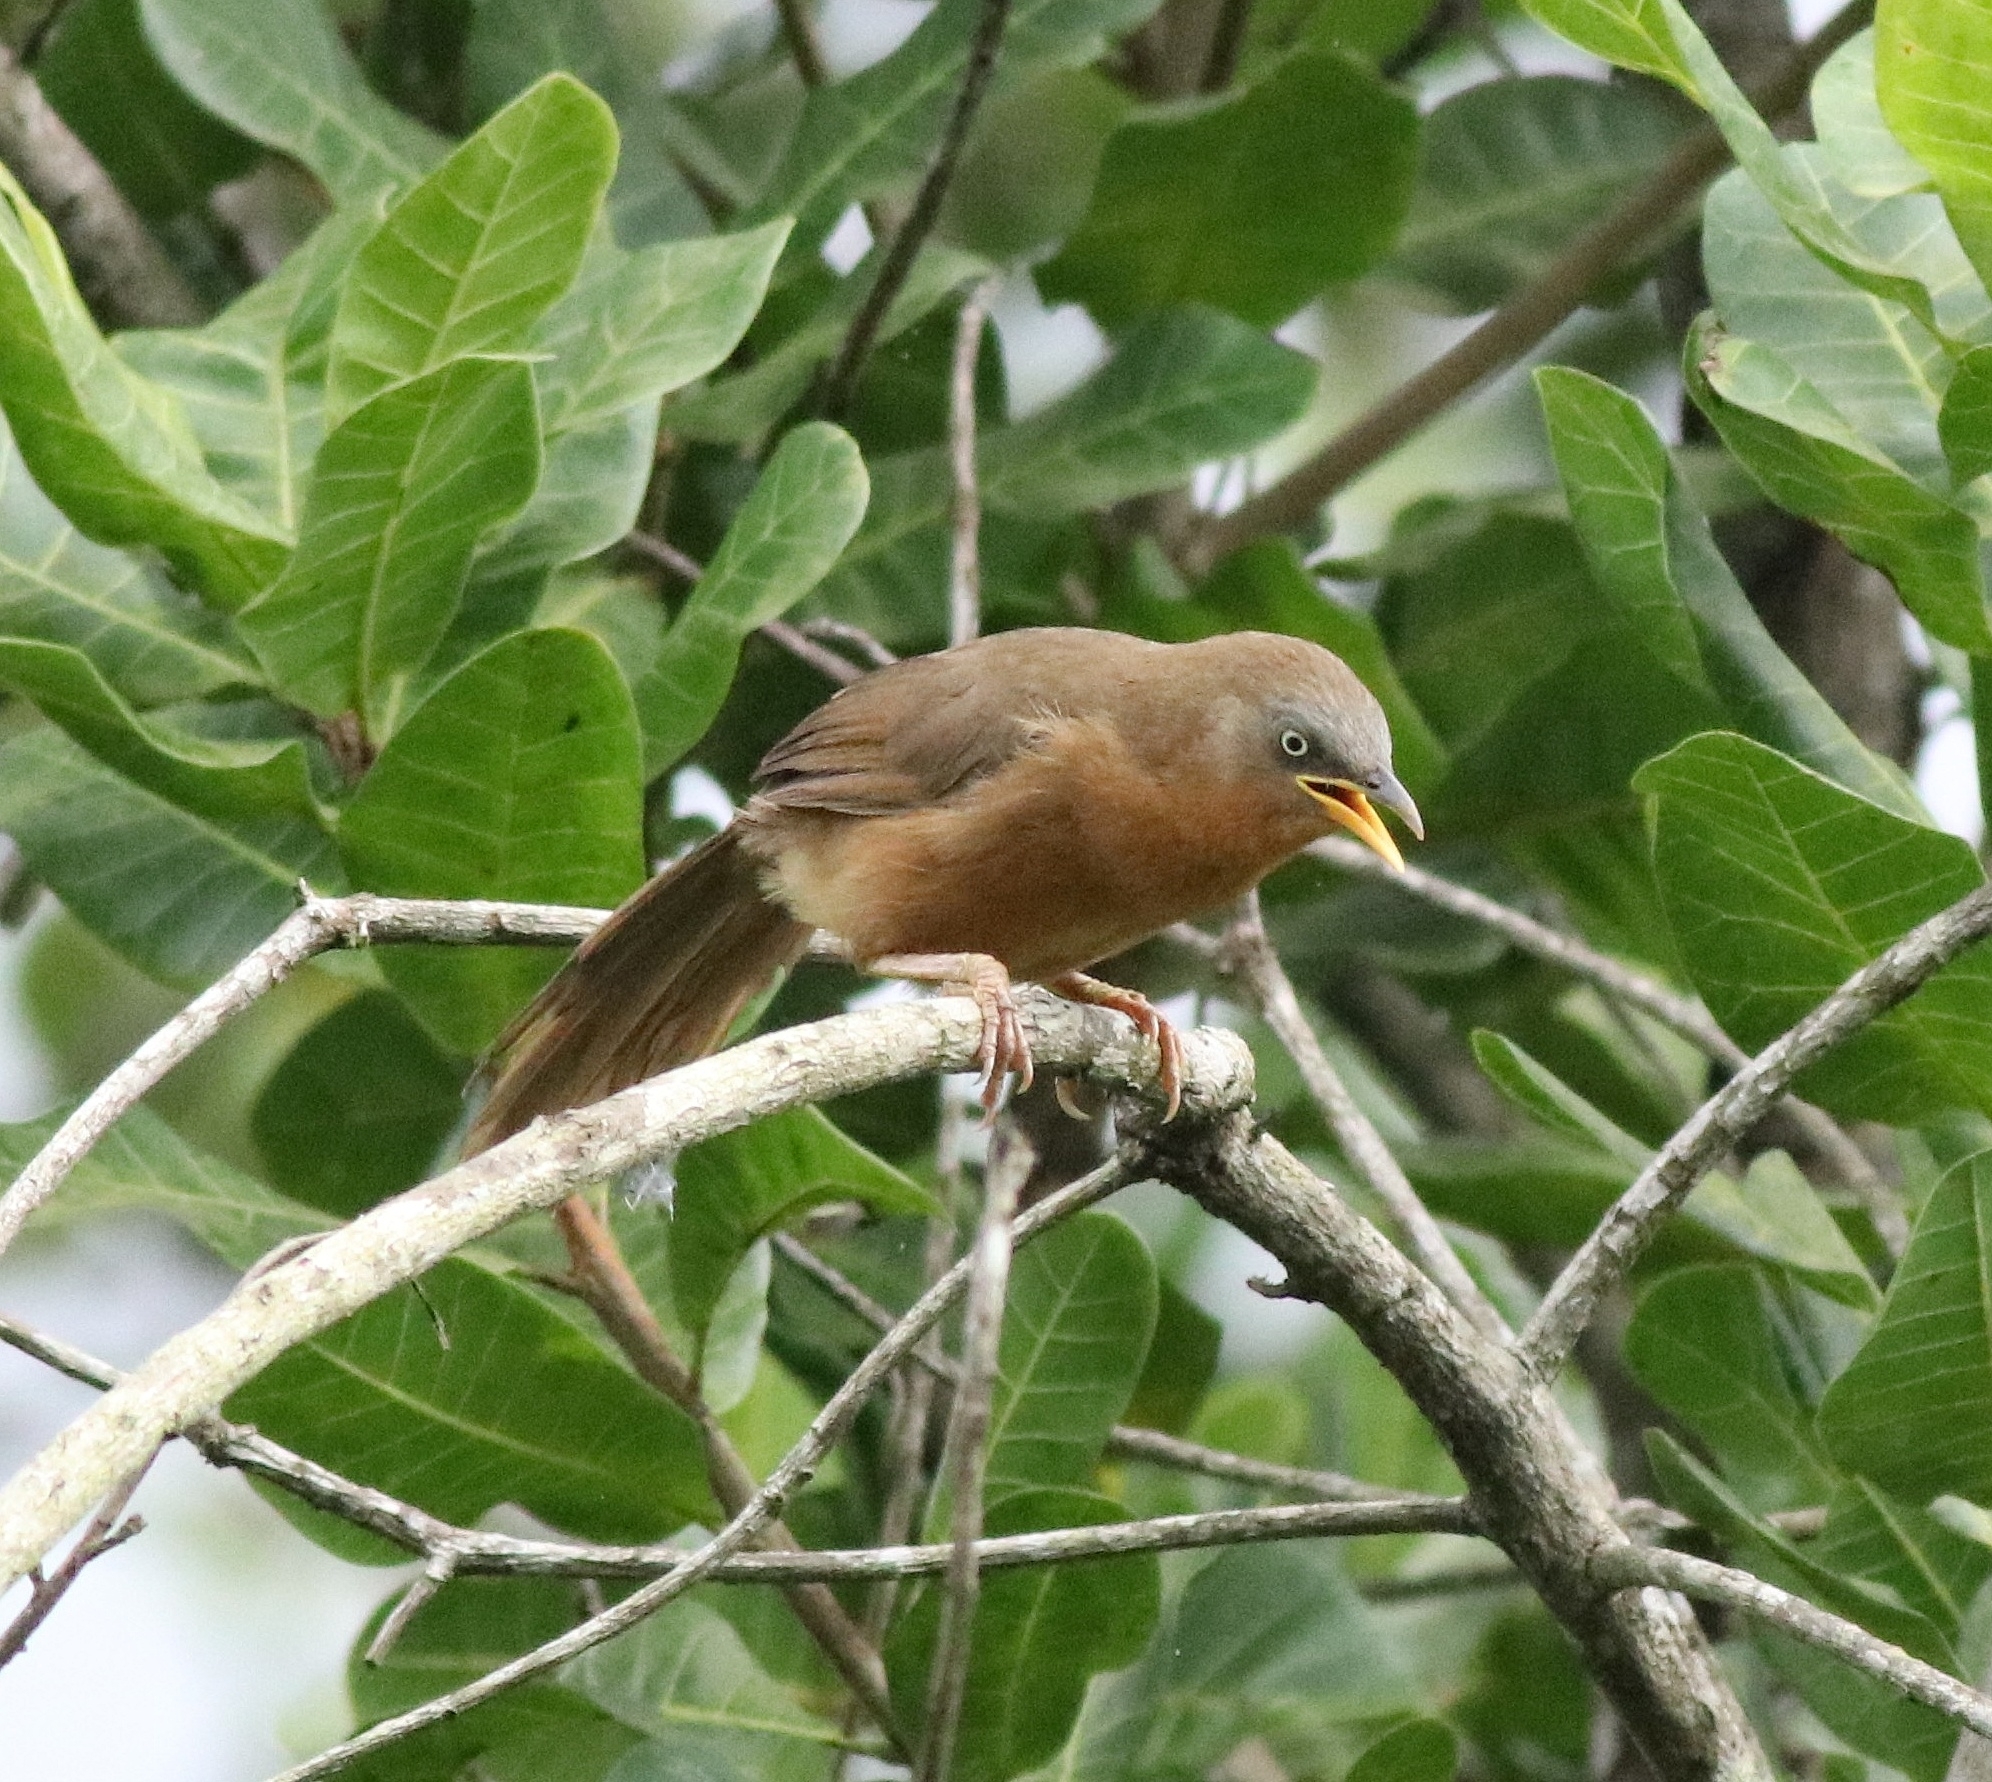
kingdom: Animalia
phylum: Chordata
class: Aves
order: Passeriformes
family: Leiothrichidae
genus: Turdoides
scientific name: Turdoides subrufa
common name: Rufous babbler
